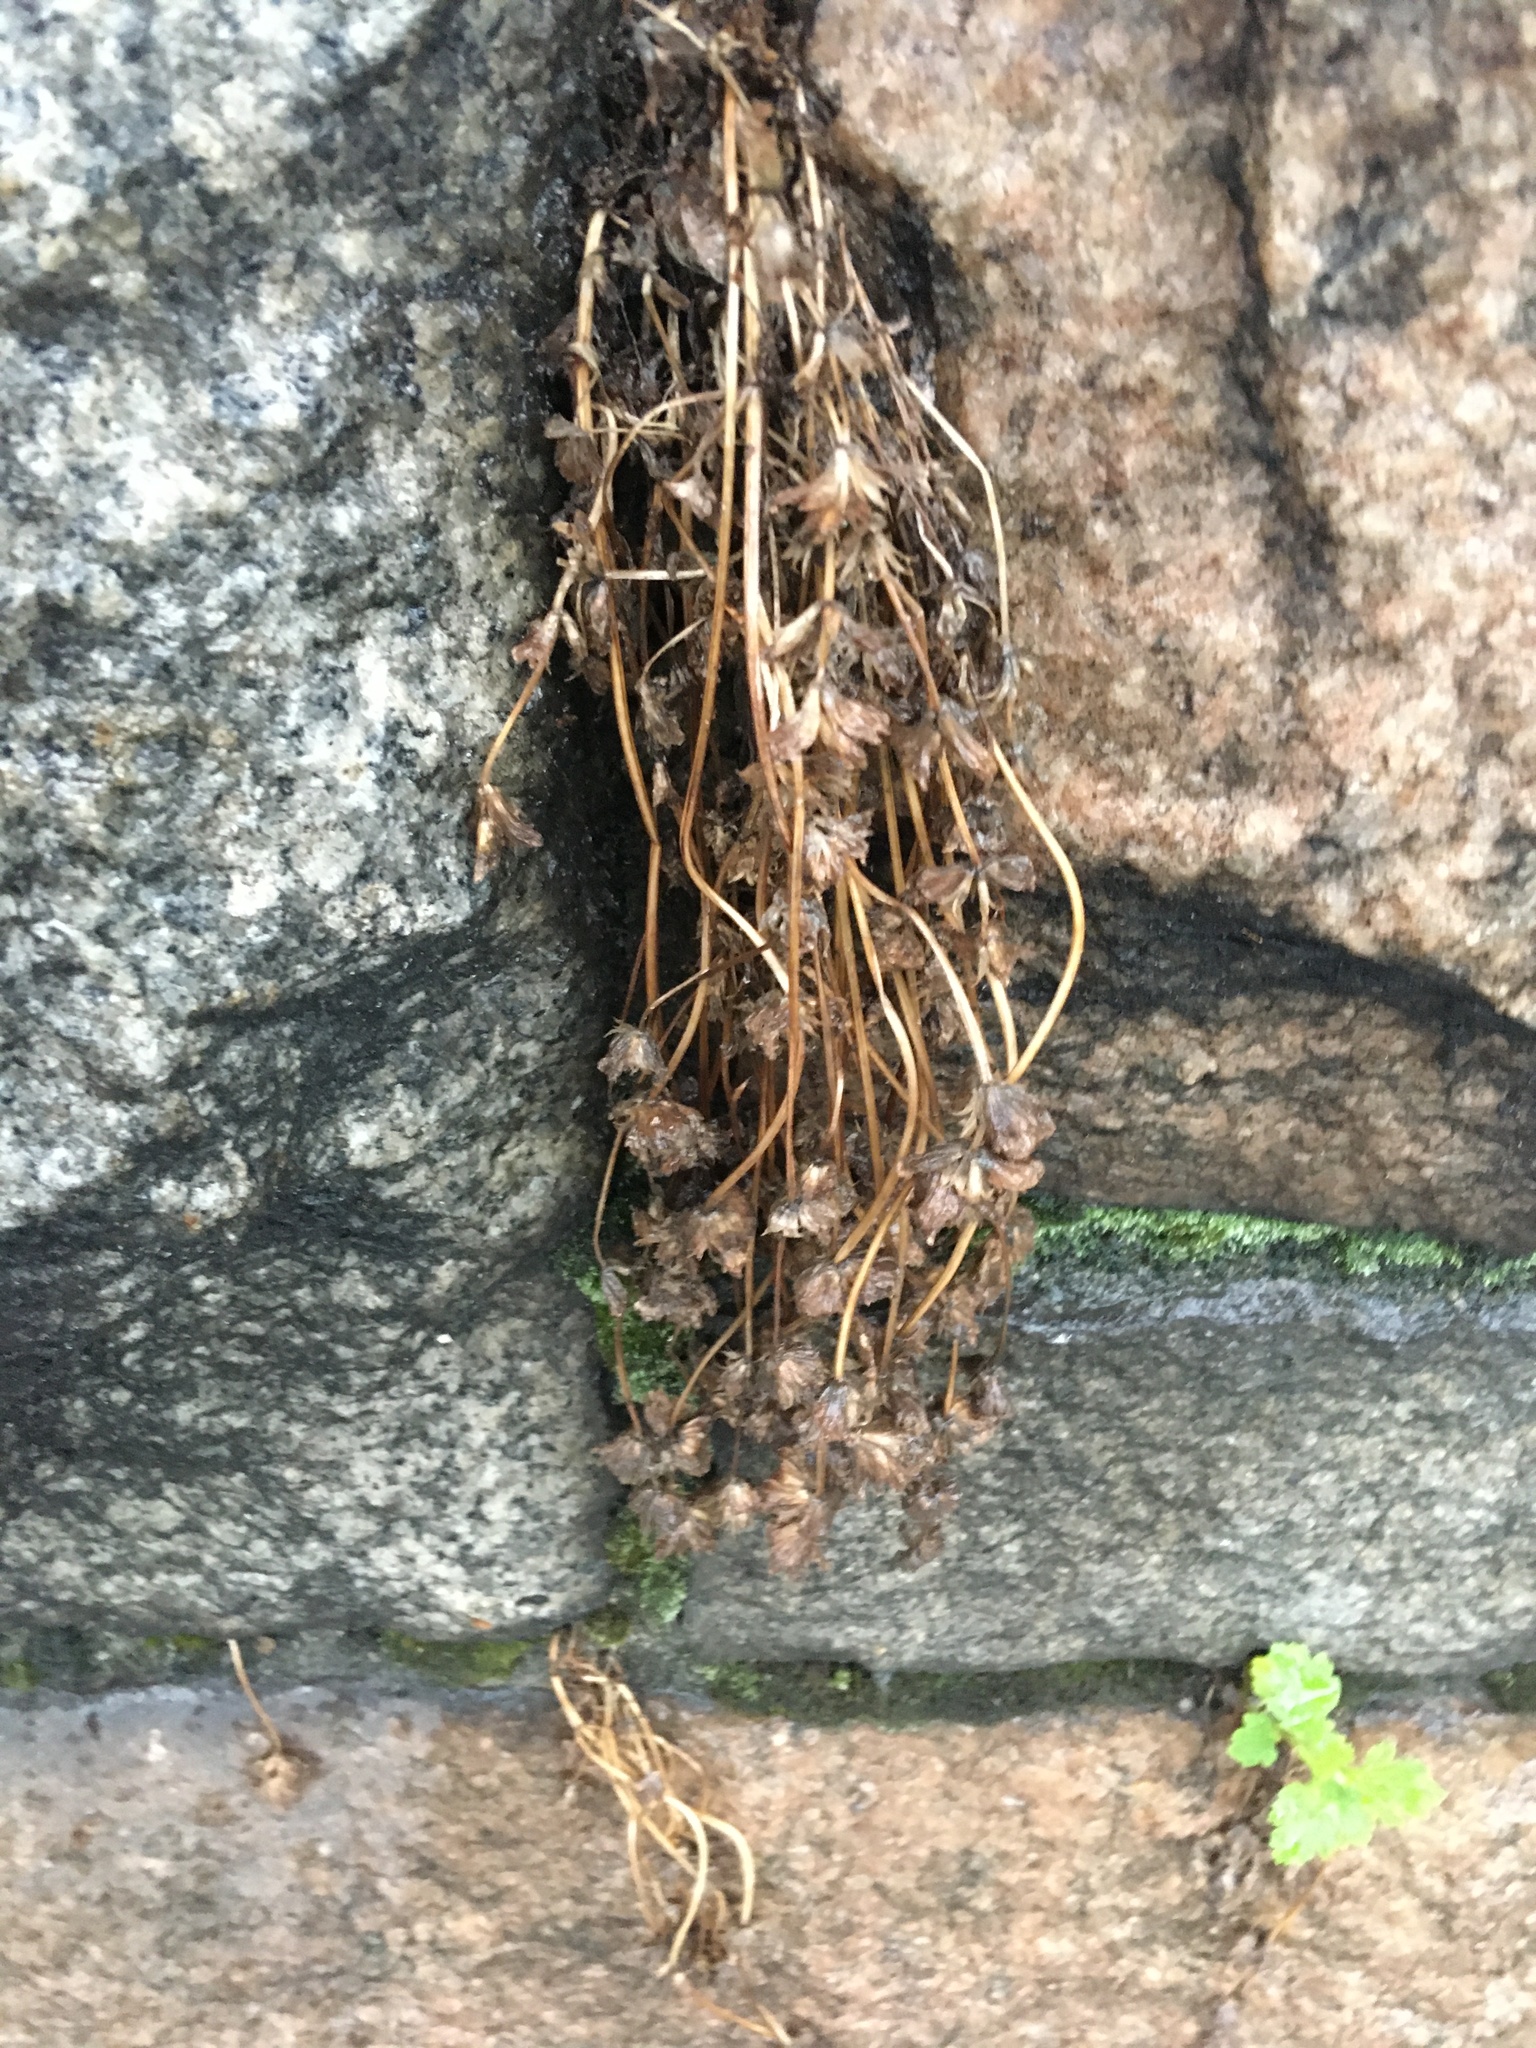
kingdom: Plantae
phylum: Tracheophyta
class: Magnoliopsida
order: Lamiales
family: Lamiaceae
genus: Lamium
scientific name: Lamium amplexicaule
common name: Henbit dead-nettle
